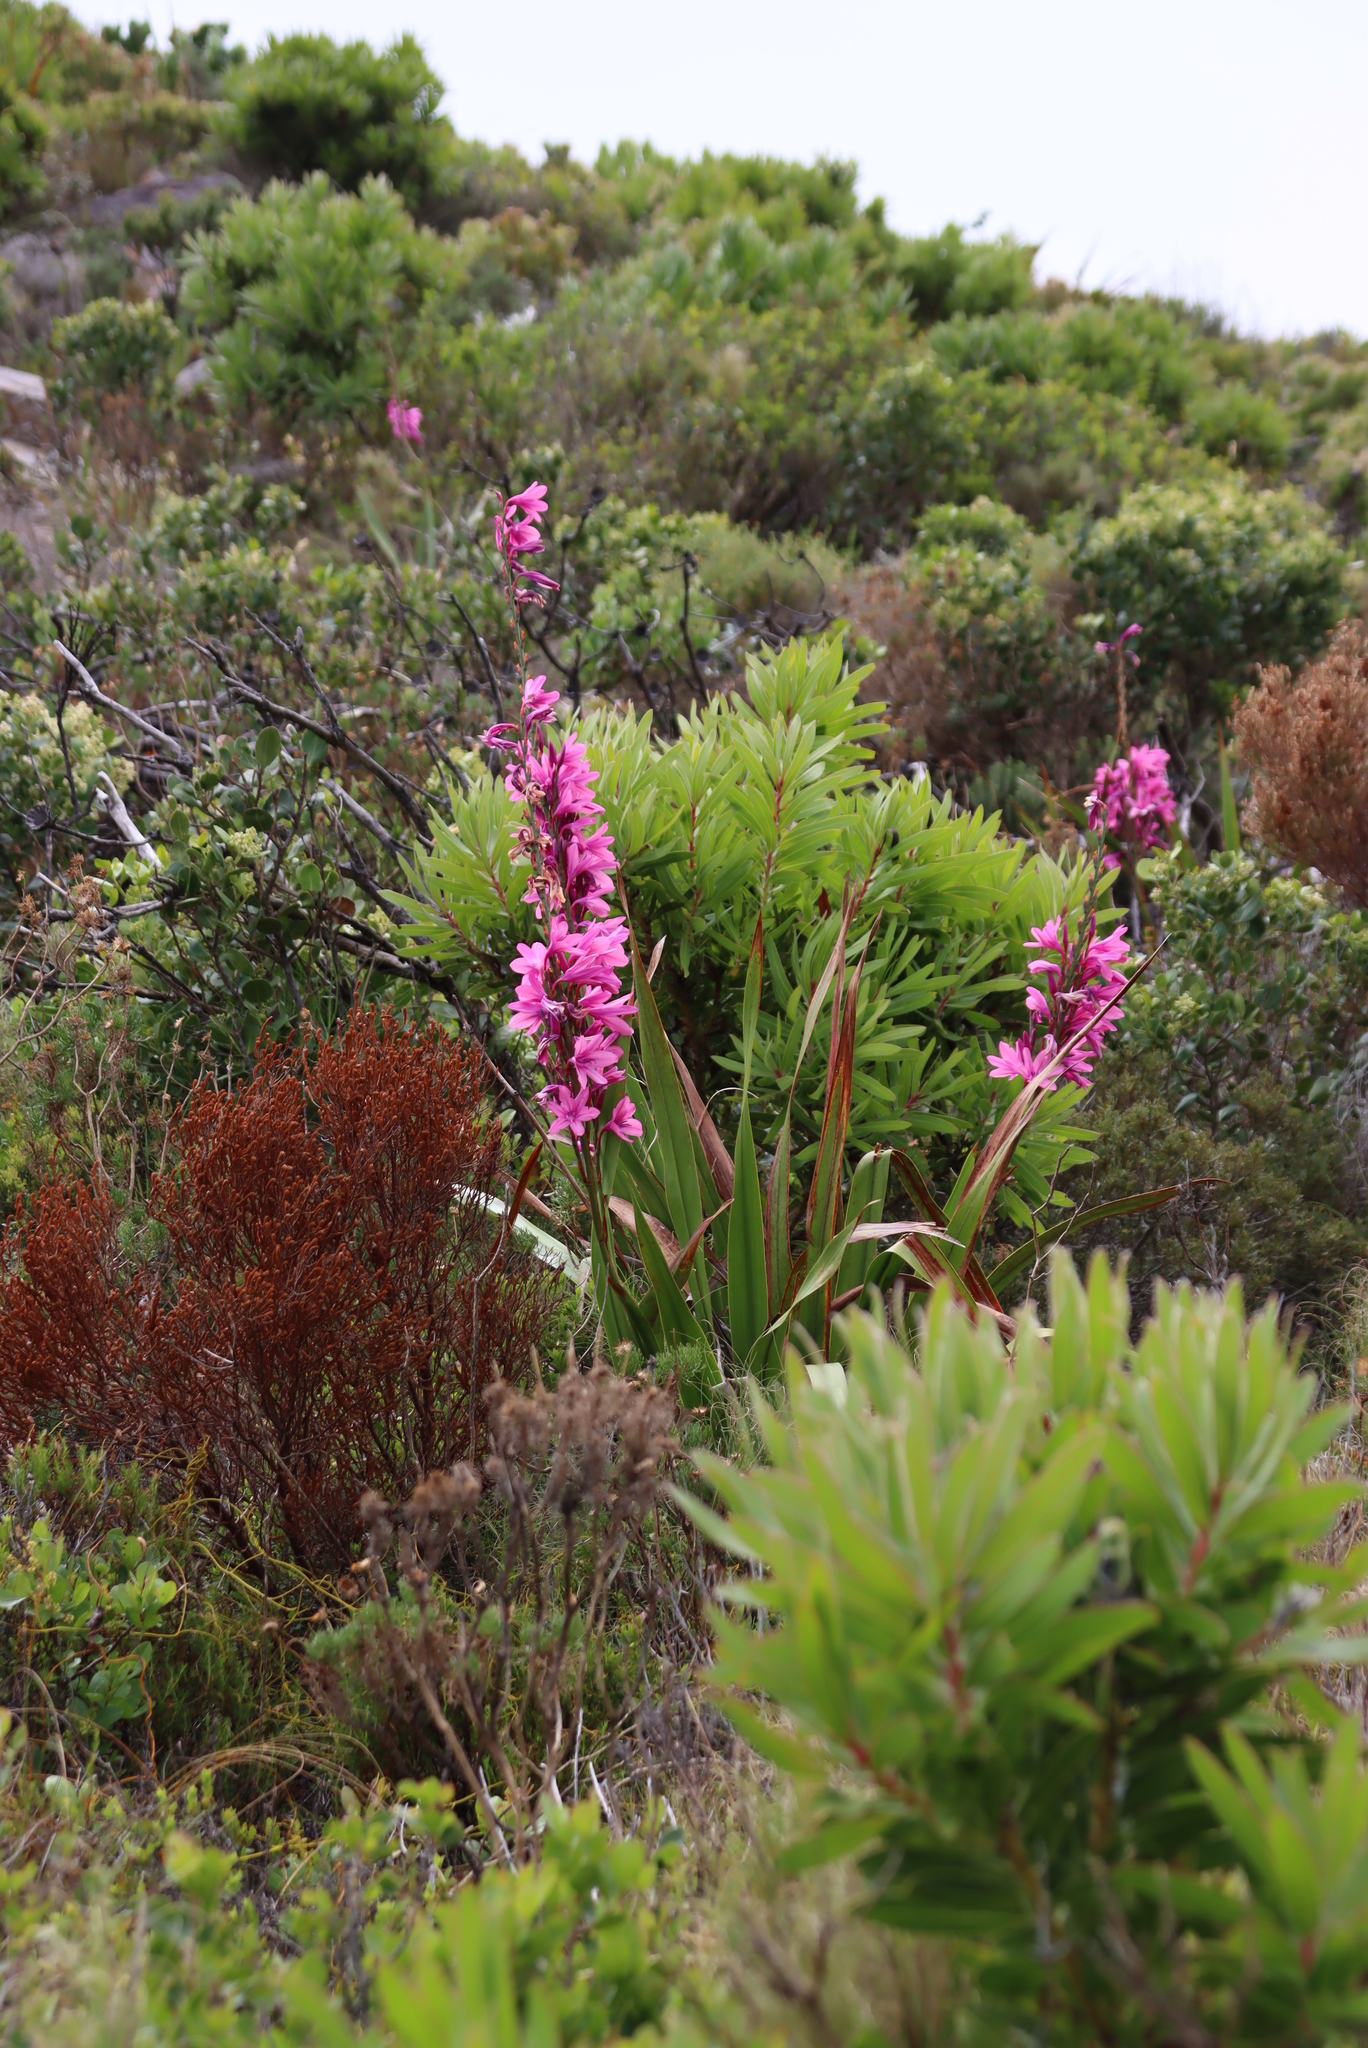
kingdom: Plantae
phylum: Tracheophyta
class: Liliopsida
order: Asparagales
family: Iridaceae
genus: Watsonia
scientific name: Watsonia borbonica
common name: Bugle-lily
